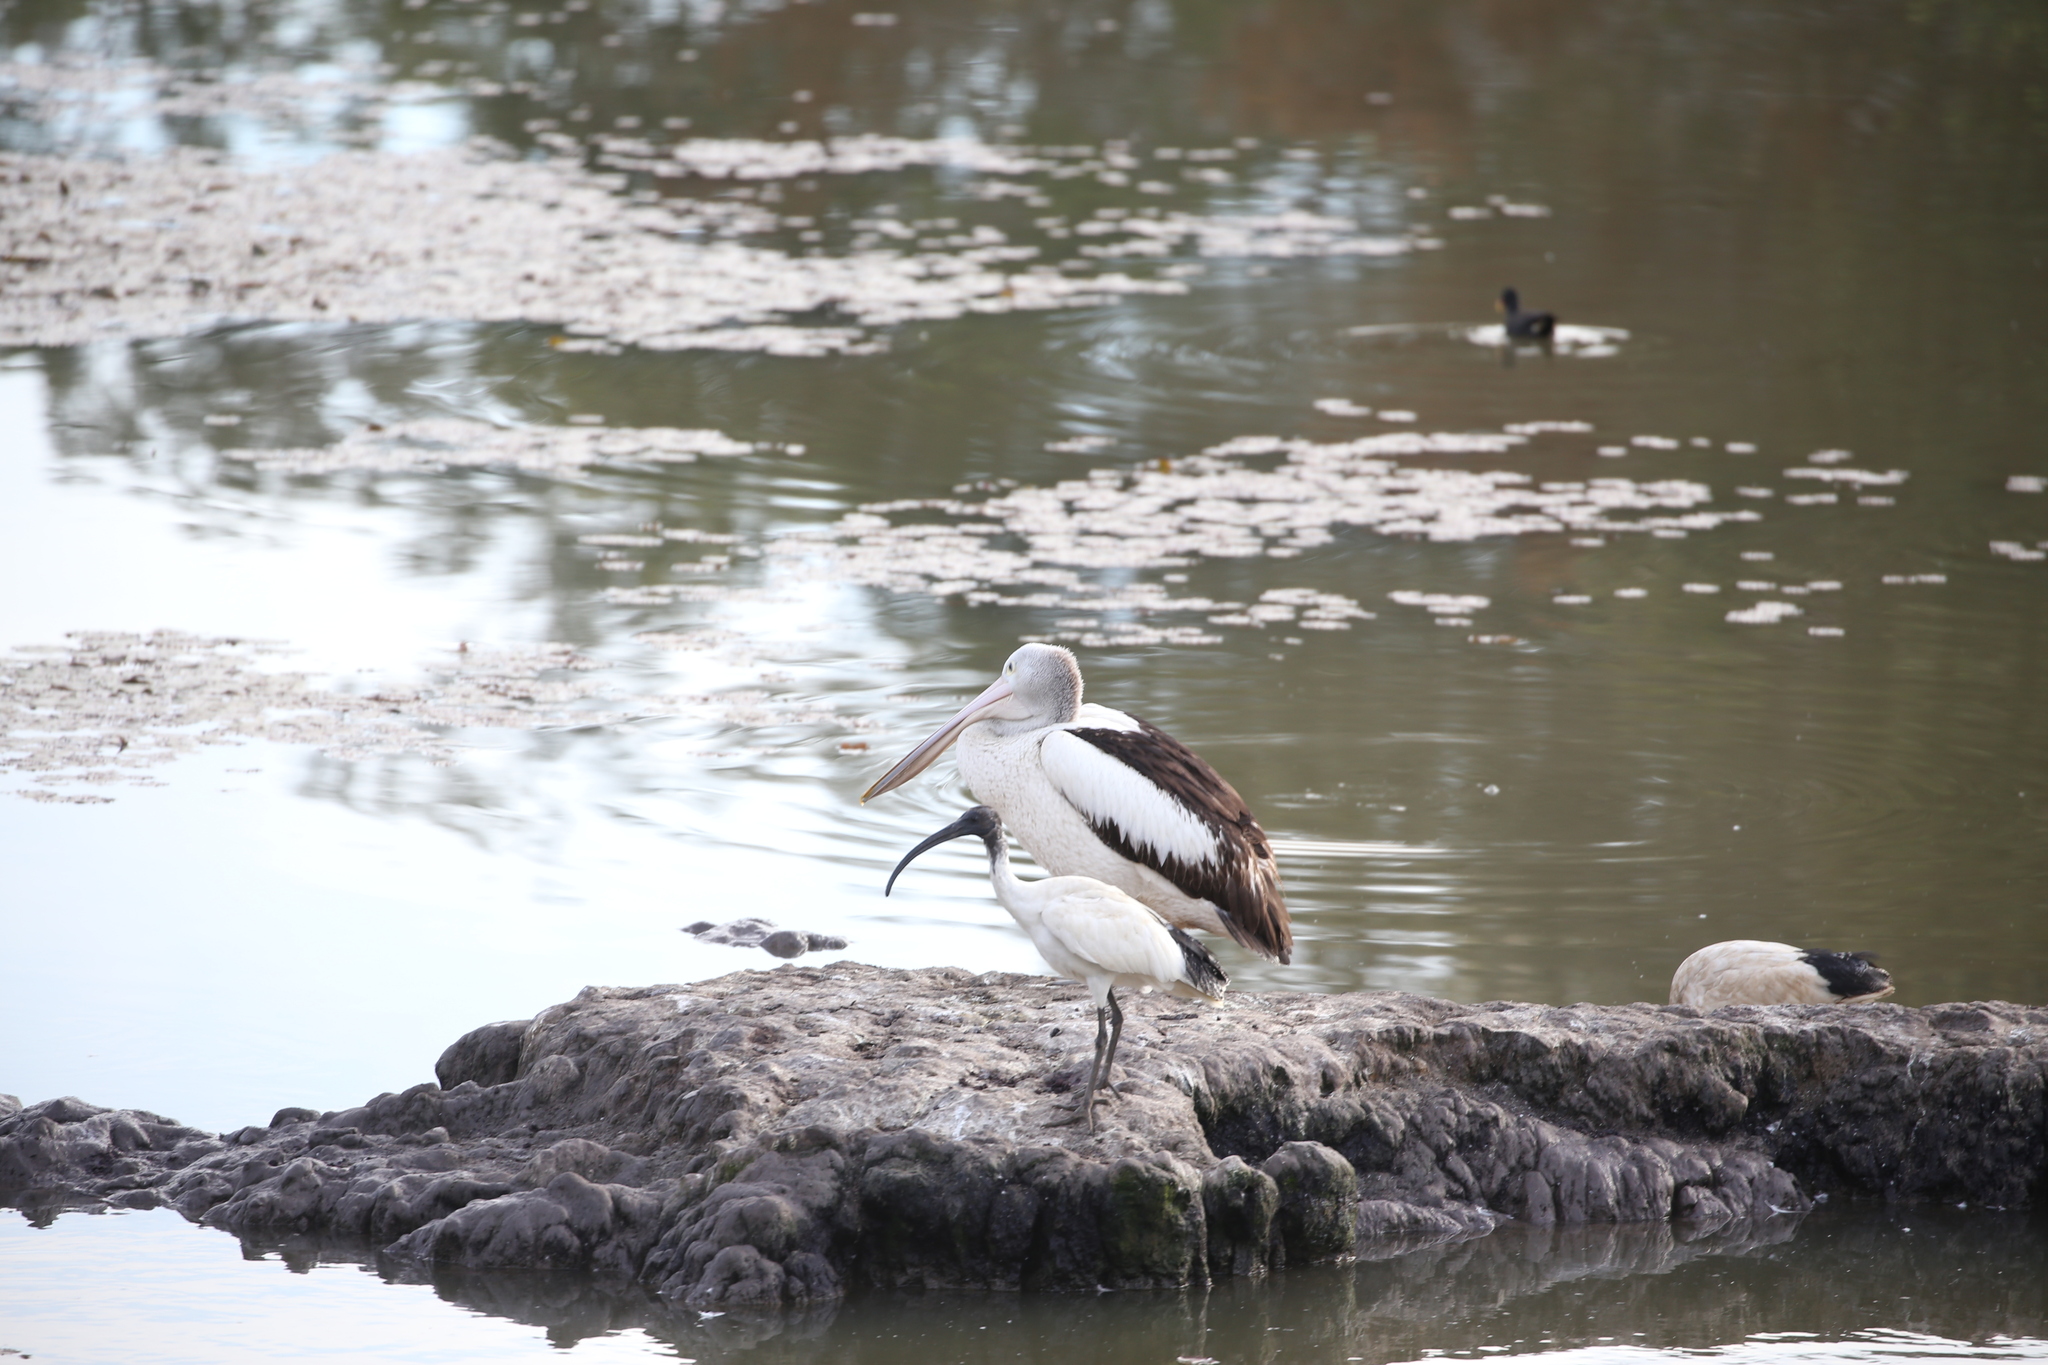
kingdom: Animalia
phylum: Chordata
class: Aves
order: Pelecaniformes
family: Threskiornithidae
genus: Threskiornis
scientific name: Threskiornis molucca
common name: Australian white ibis
